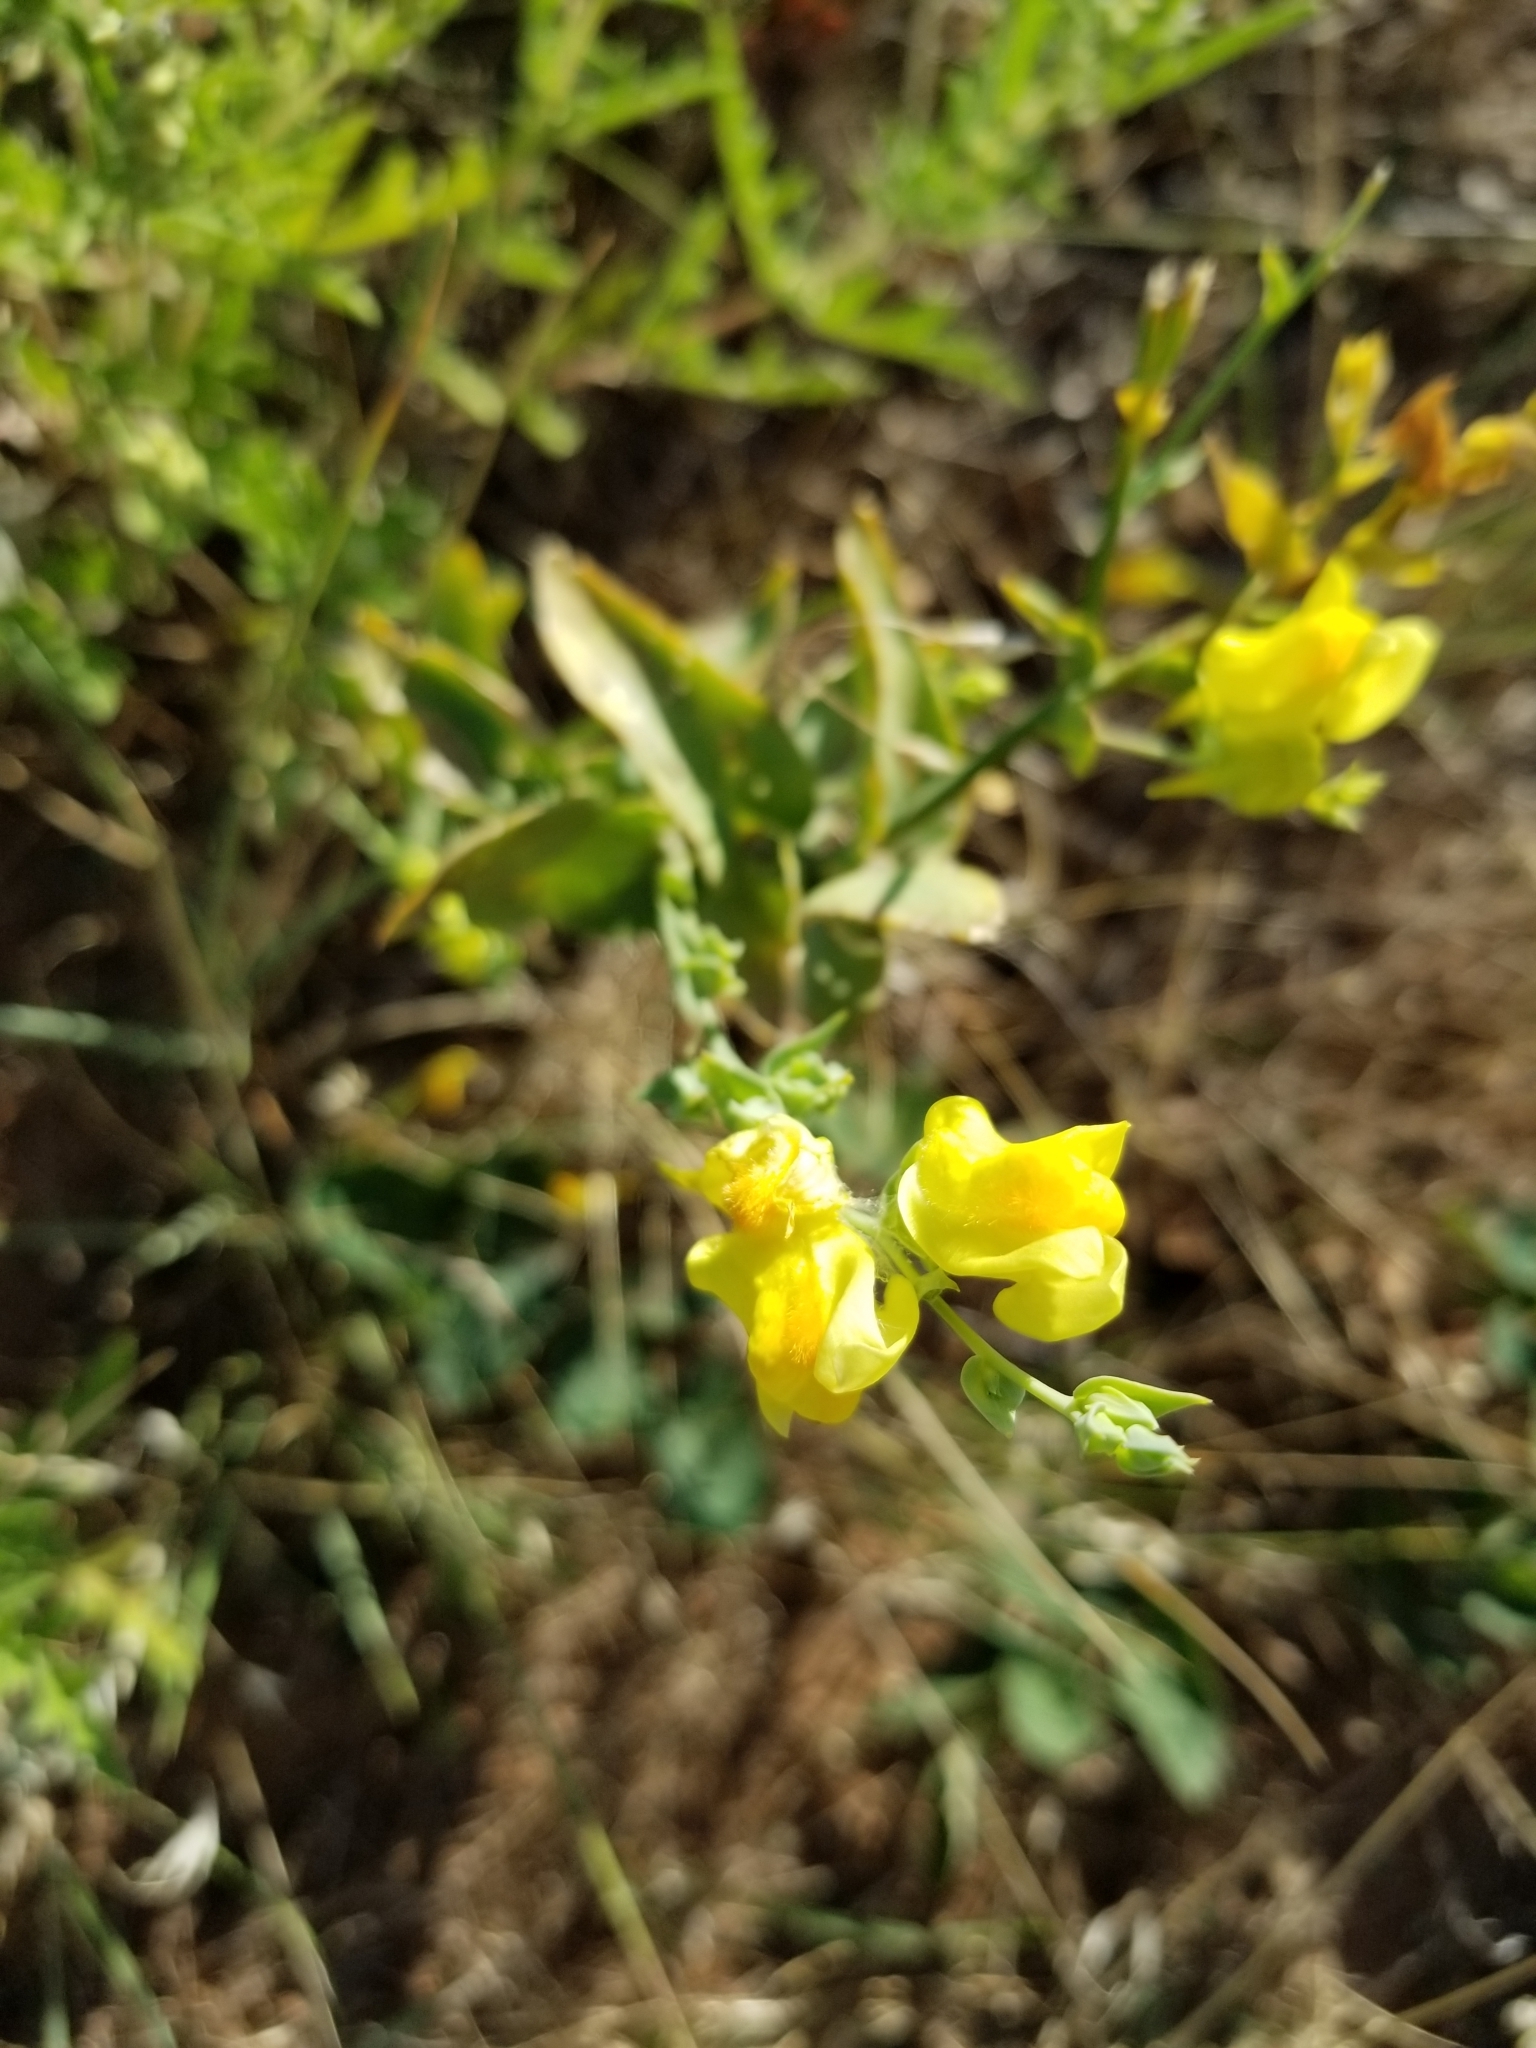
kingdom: Plantae
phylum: Tracheophyta
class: Magnoliopsida
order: Lamiales
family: Plantaginaceae
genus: Linaria
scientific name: Linaria dalmatica
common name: Dalmatian toadflax
